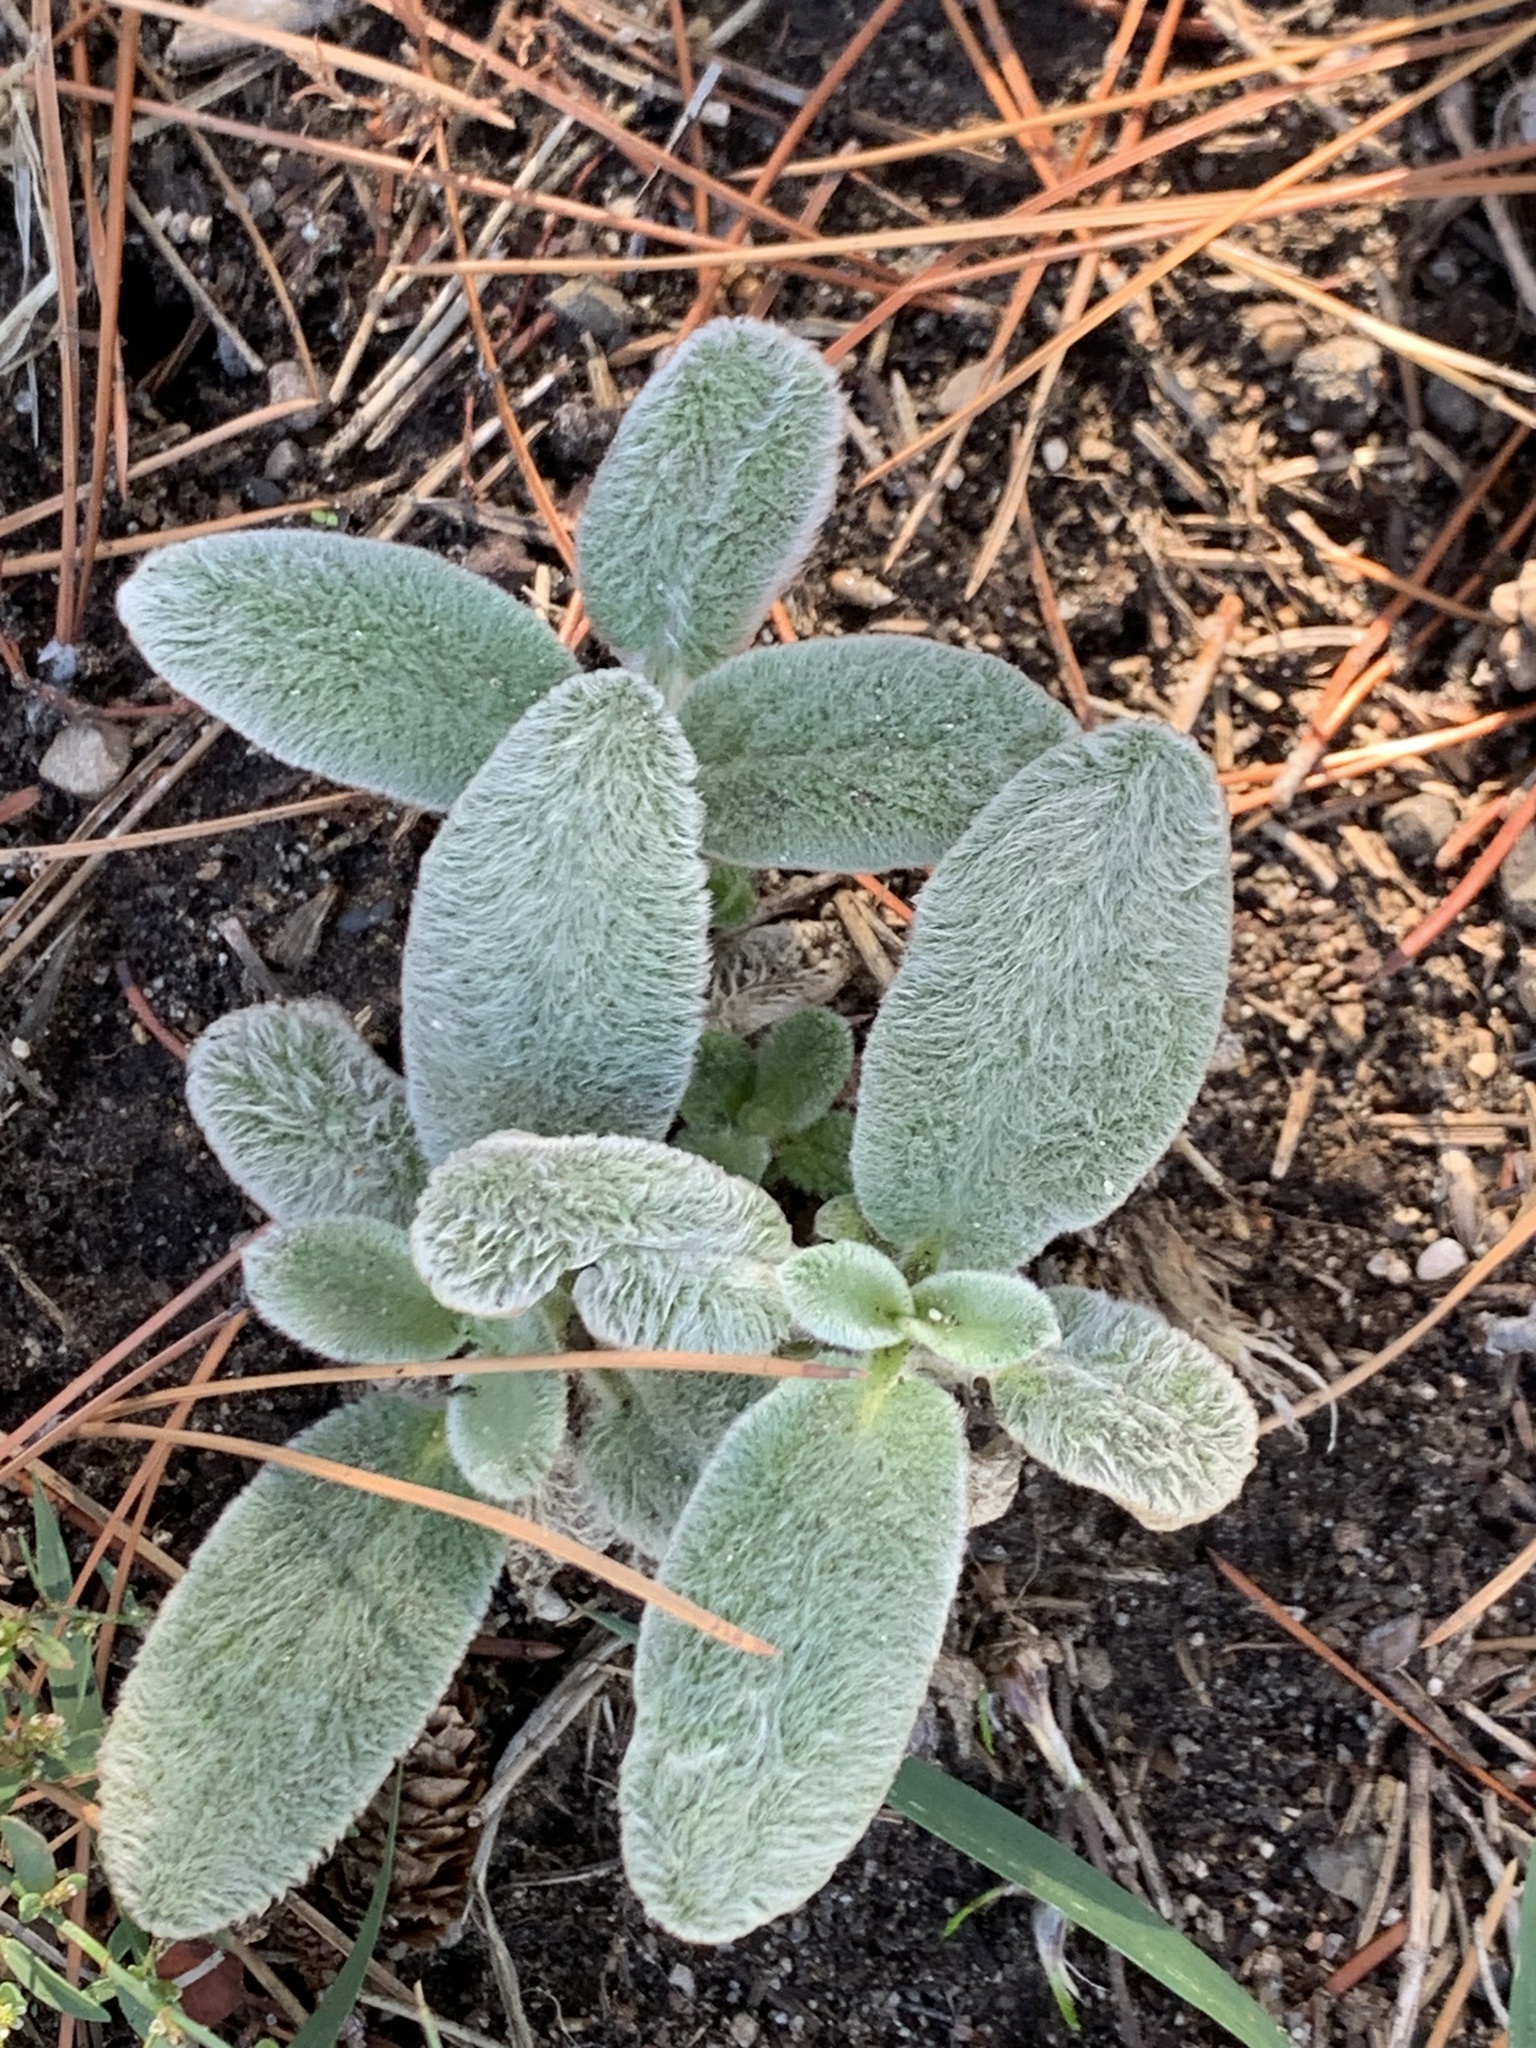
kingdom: Plantae
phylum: Tracheophyta
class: Magnoliopsida
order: Lamiales
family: Lamiaceae
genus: Stachys
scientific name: Stachys byzantina
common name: Lamb's-ear
